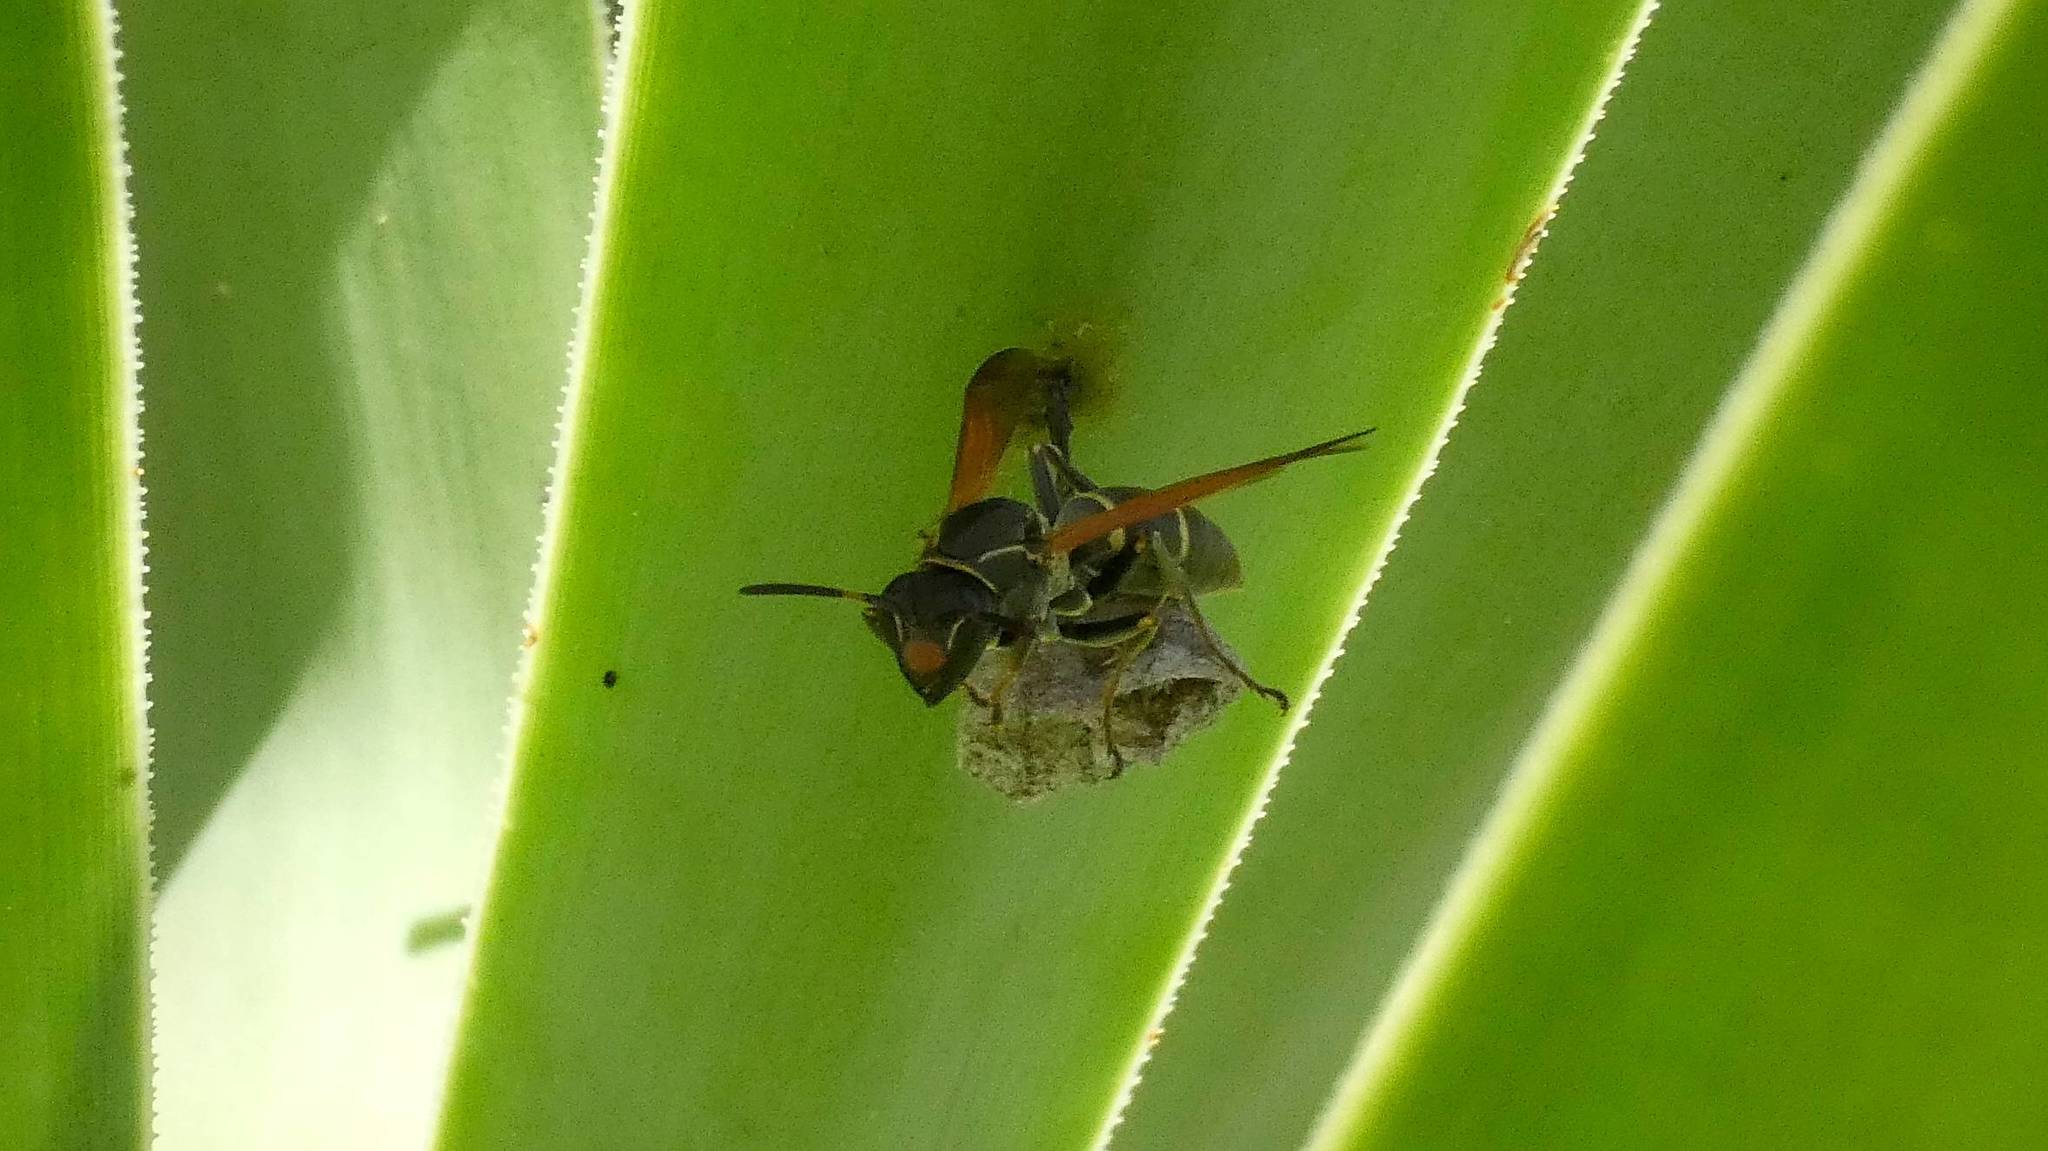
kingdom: Animalia
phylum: Arthropoda
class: Insecta
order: Hymenoptera
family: Eumenidae
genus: Polistes
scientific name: Polistes pacificus
